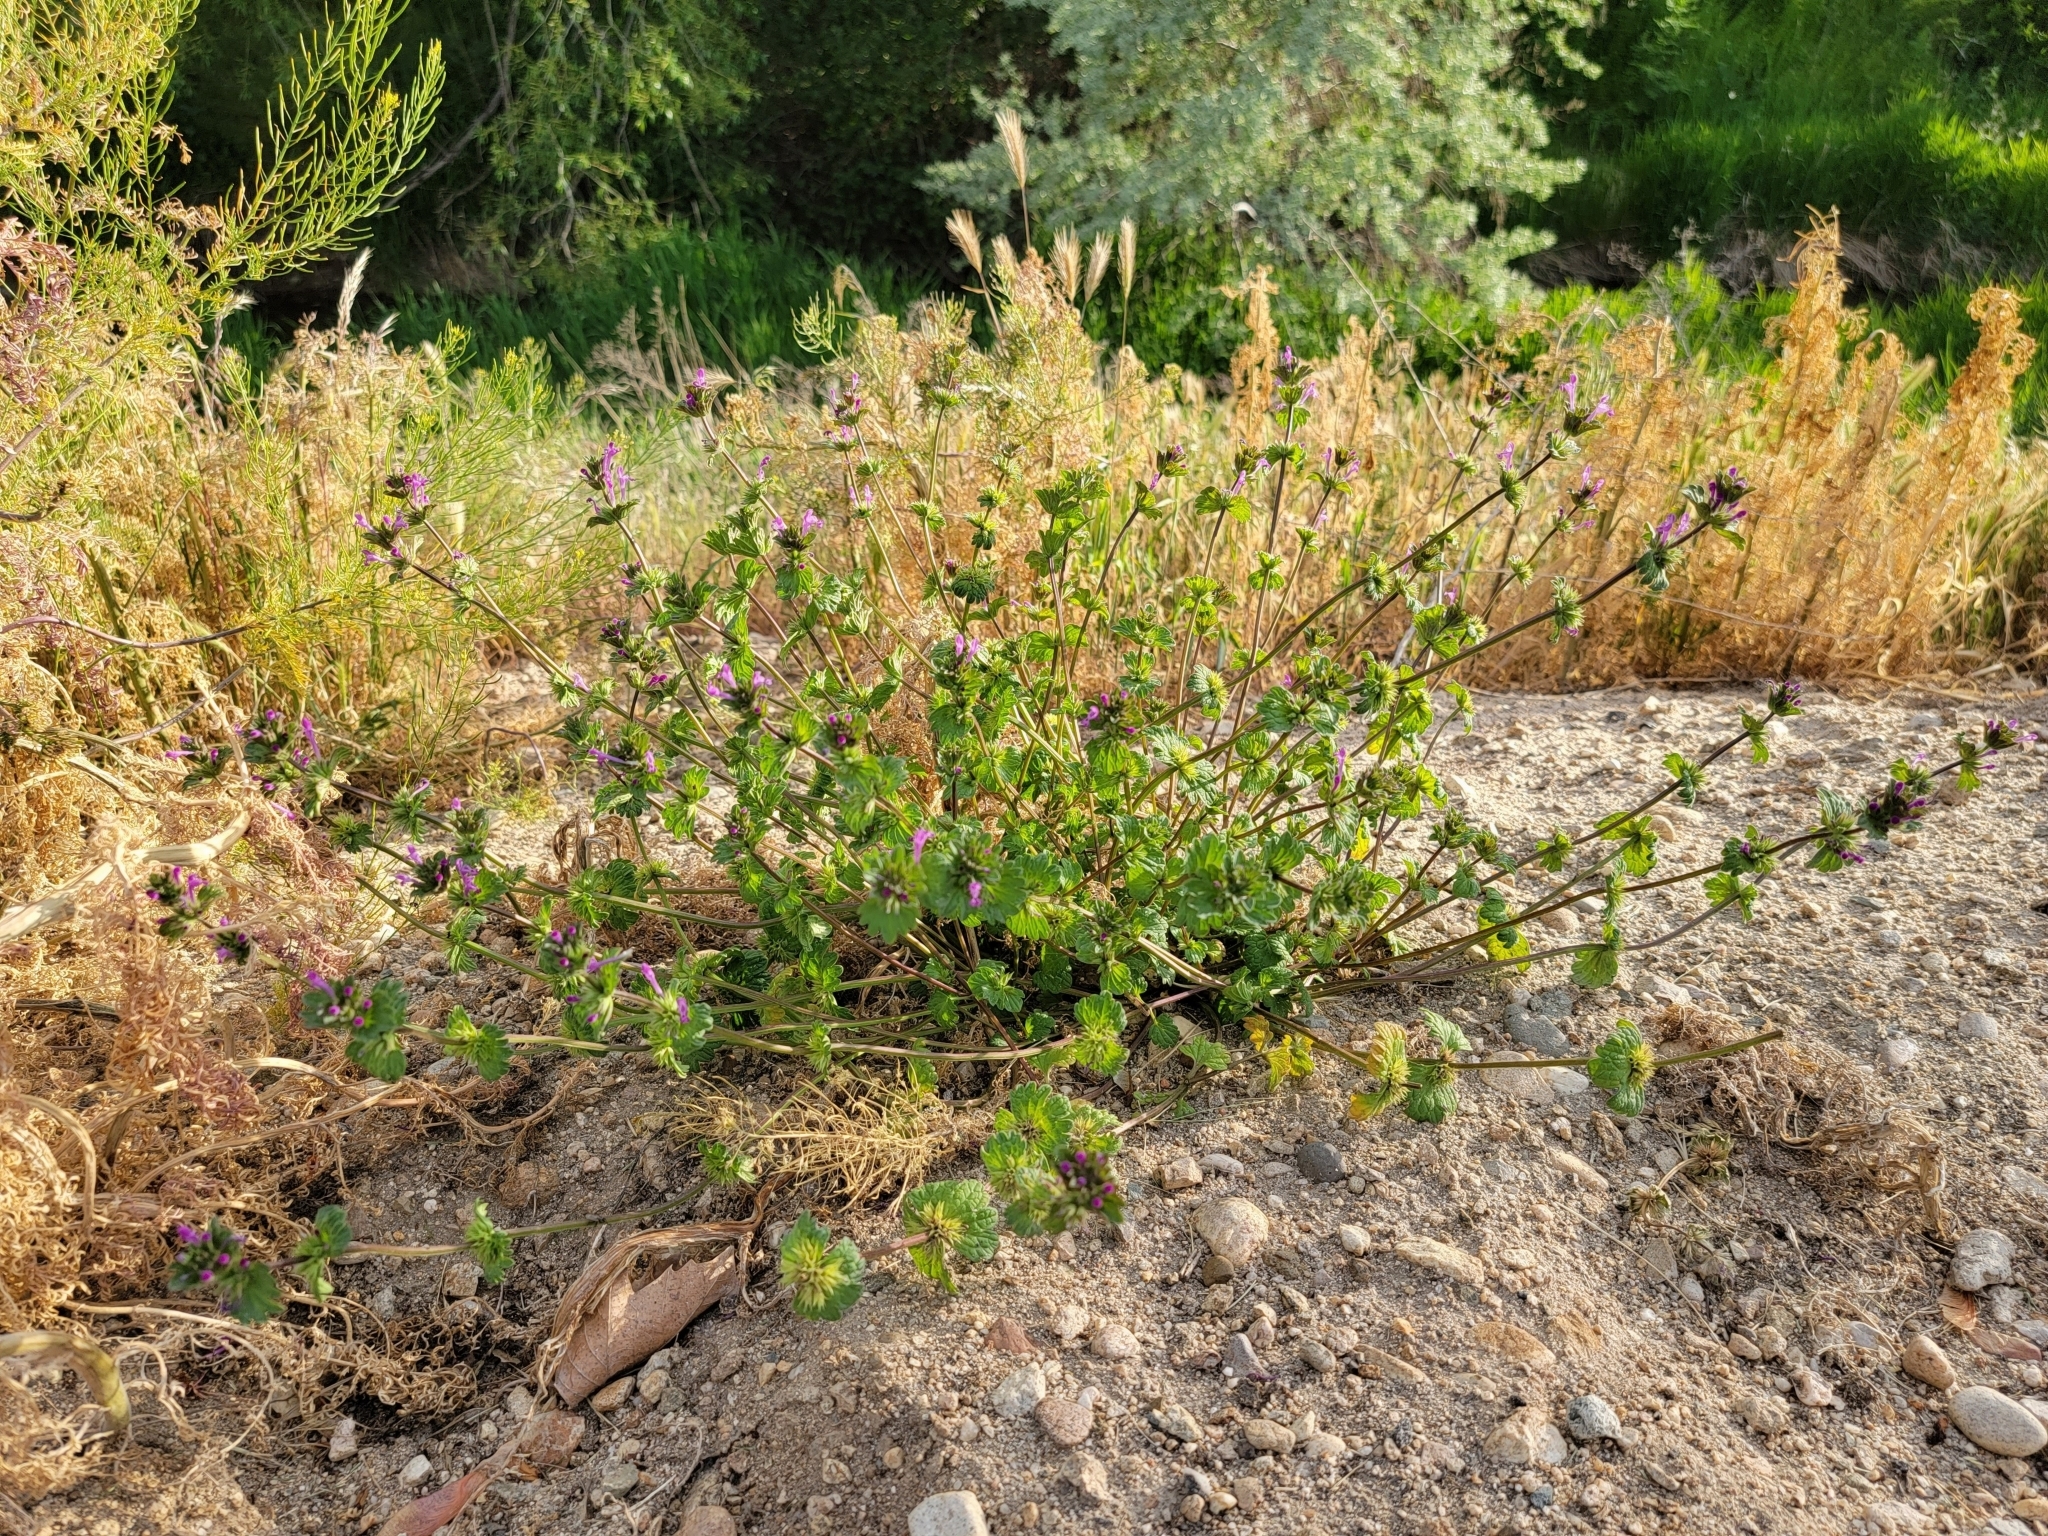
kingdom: Plantae
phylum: Tracheophyta
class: Magnoliopsida
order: Lamiales
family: Lamiaceae
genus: Lamium
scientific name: Lamium amplexicaule
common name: Henbit dead-nettle
